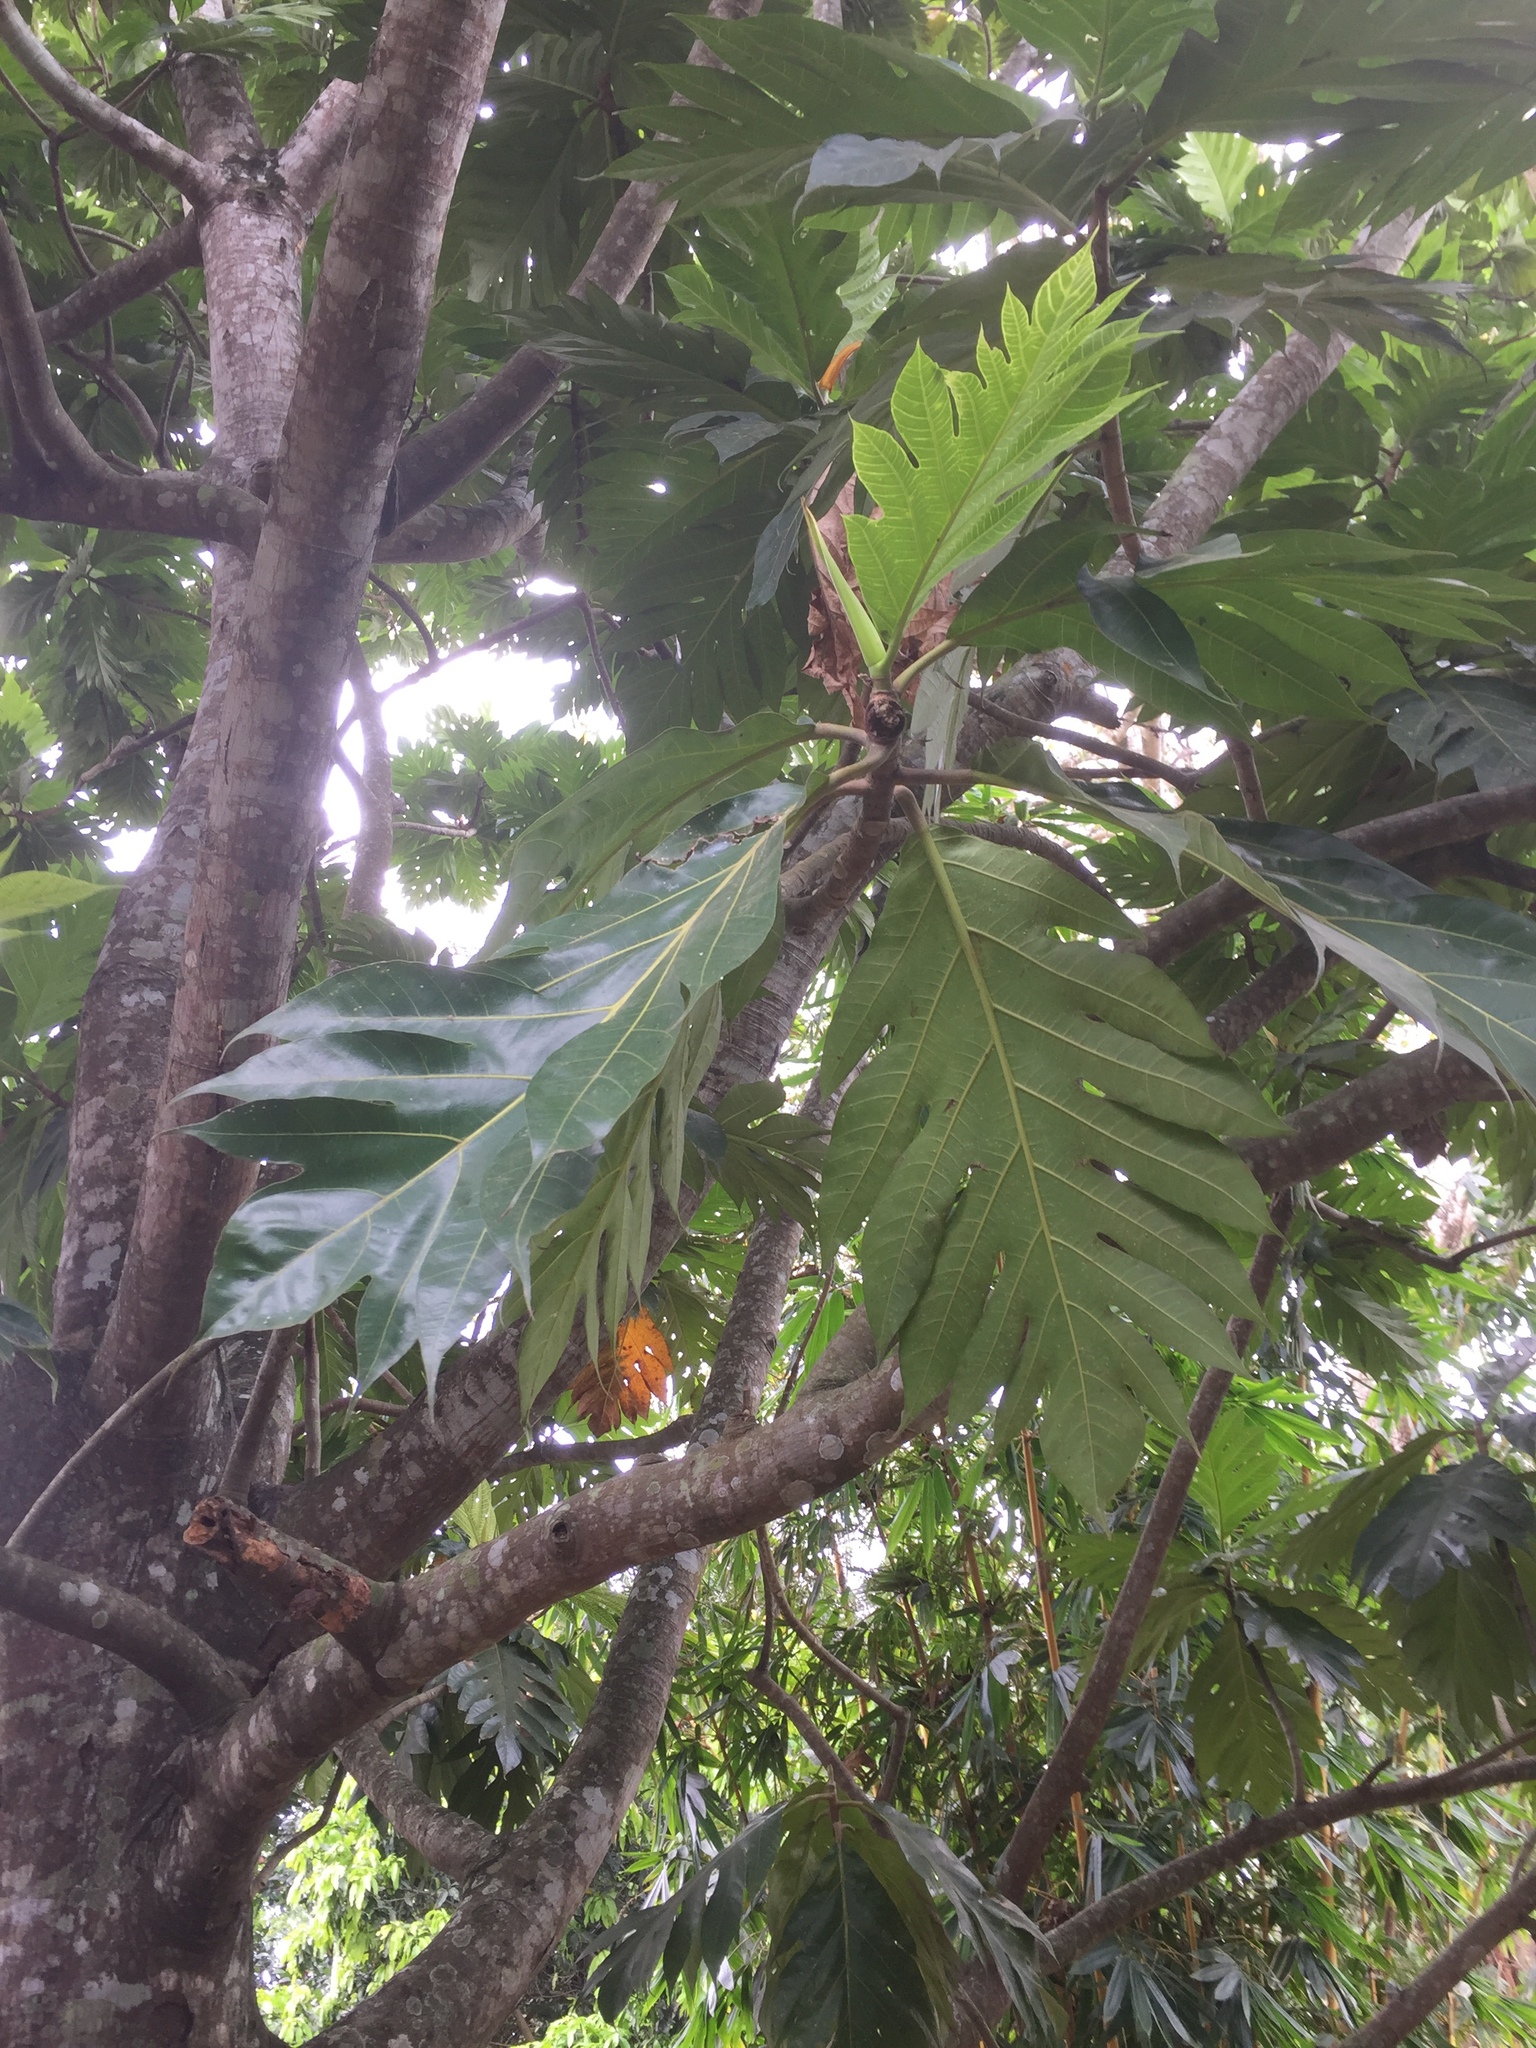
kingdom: Plantae
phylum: Tracheophyta
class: Magnoliopsida
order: Rosales
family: Moraceae
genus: Artocarpus
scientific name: Artocarpus altilis
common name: Breadfruit
